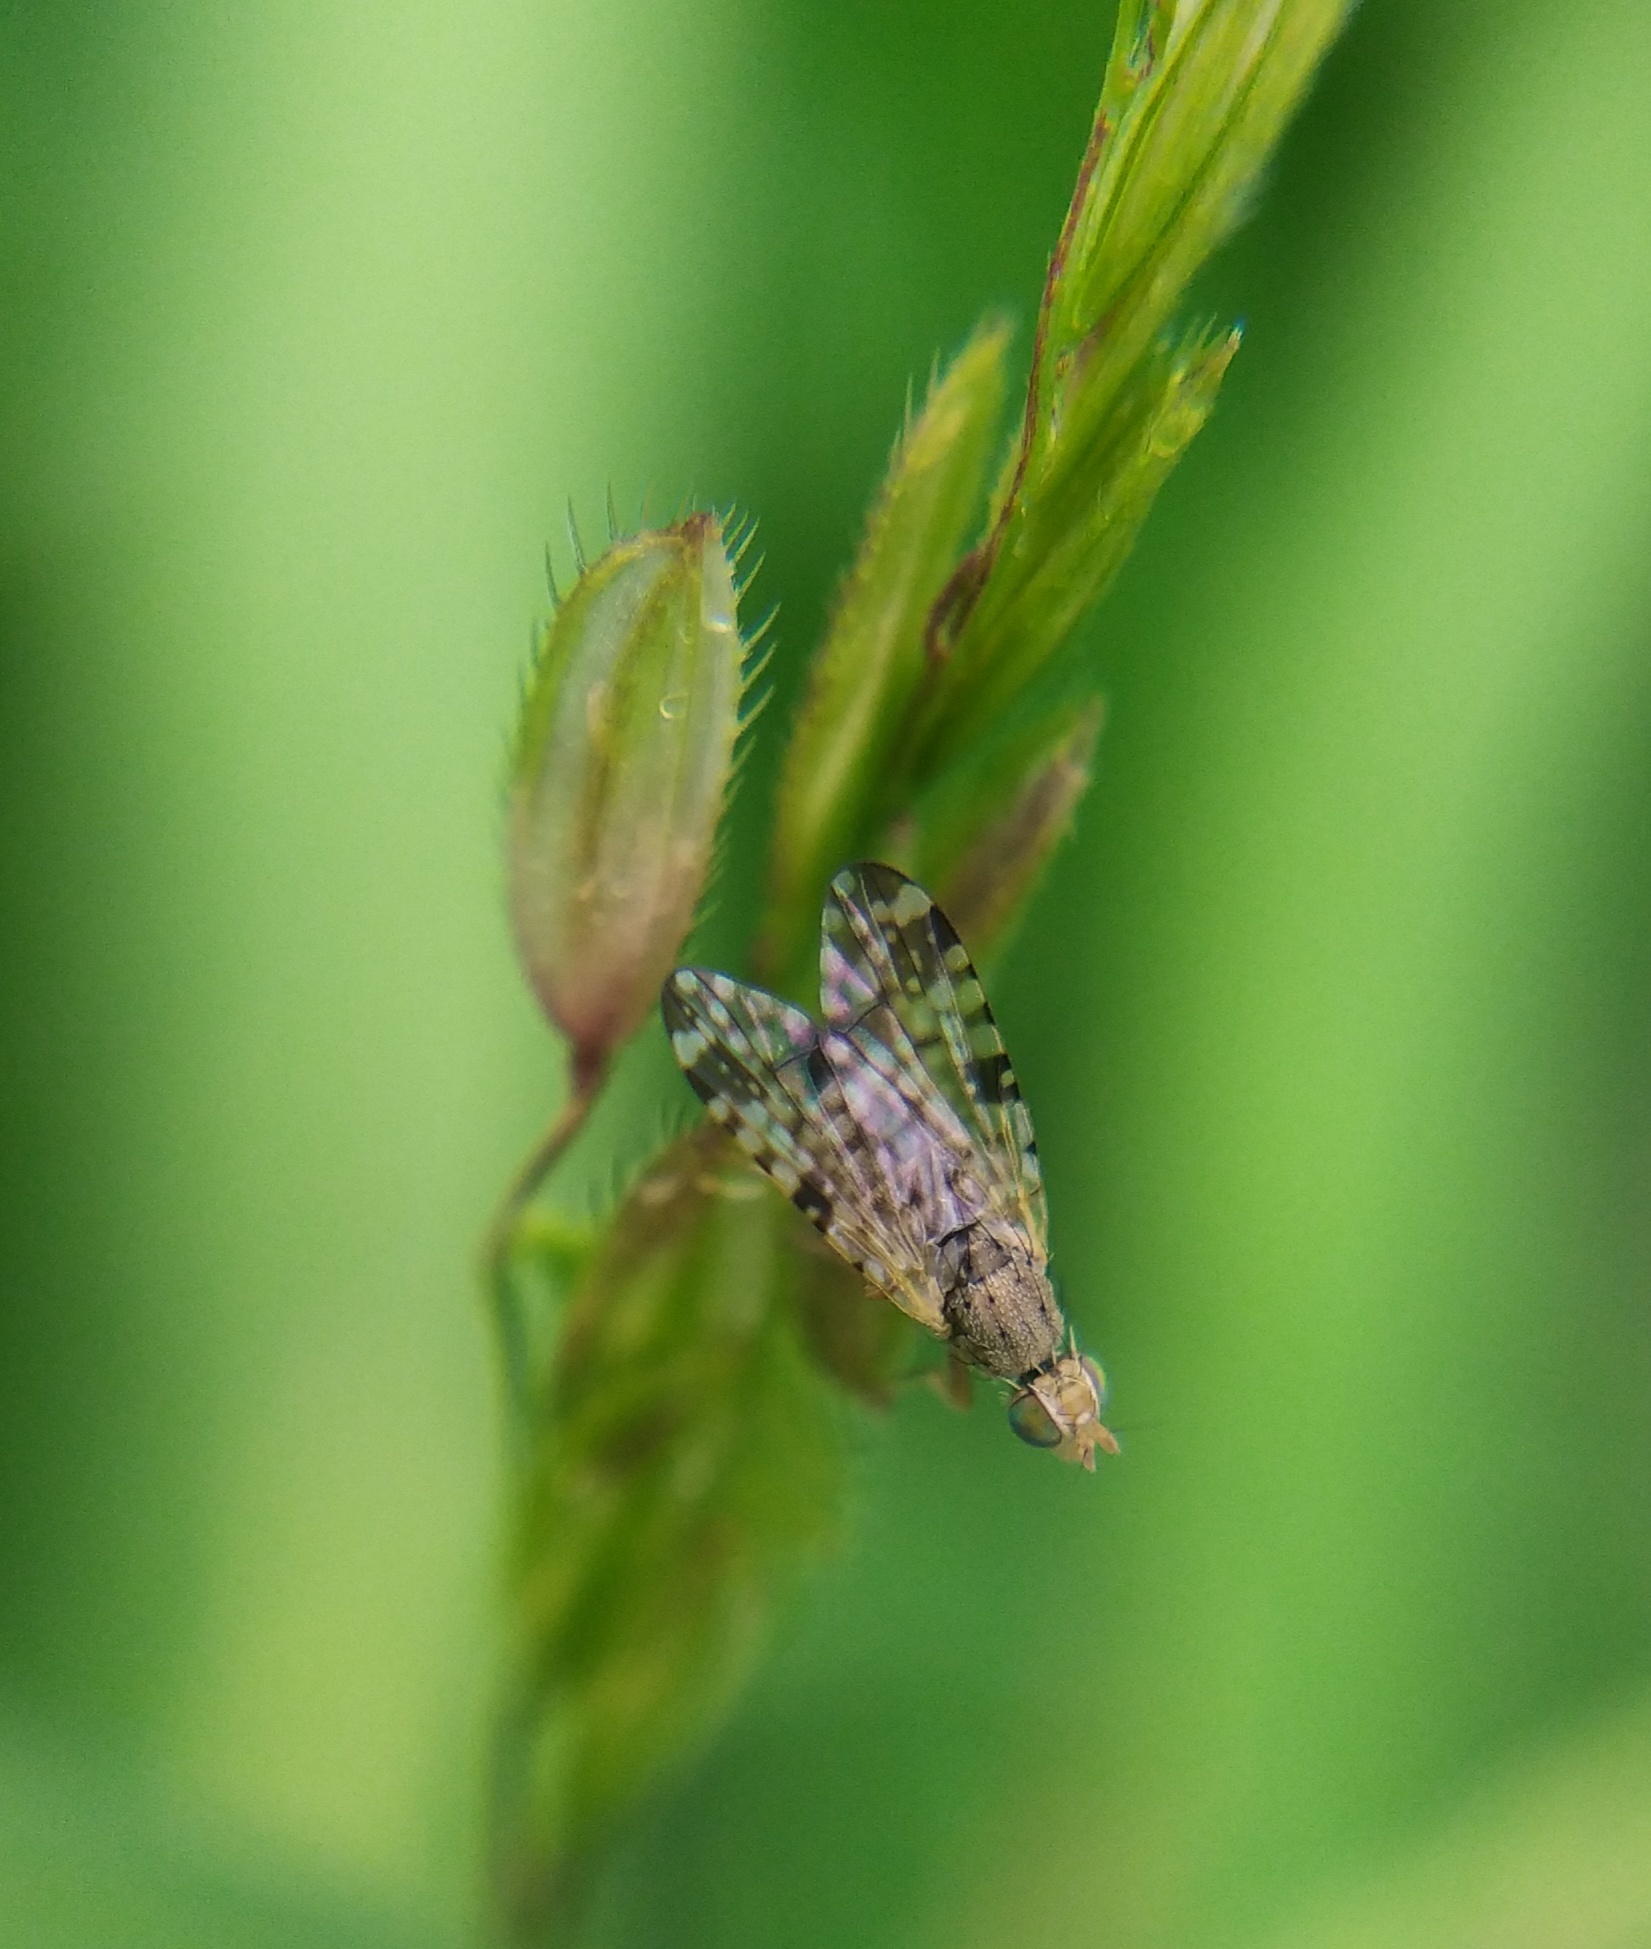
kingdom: Animalia
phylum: Arthropoda
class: Insecta
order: Diptera
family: Tephritidae
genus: Dioxyna
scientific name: Dioxyna bidentis
